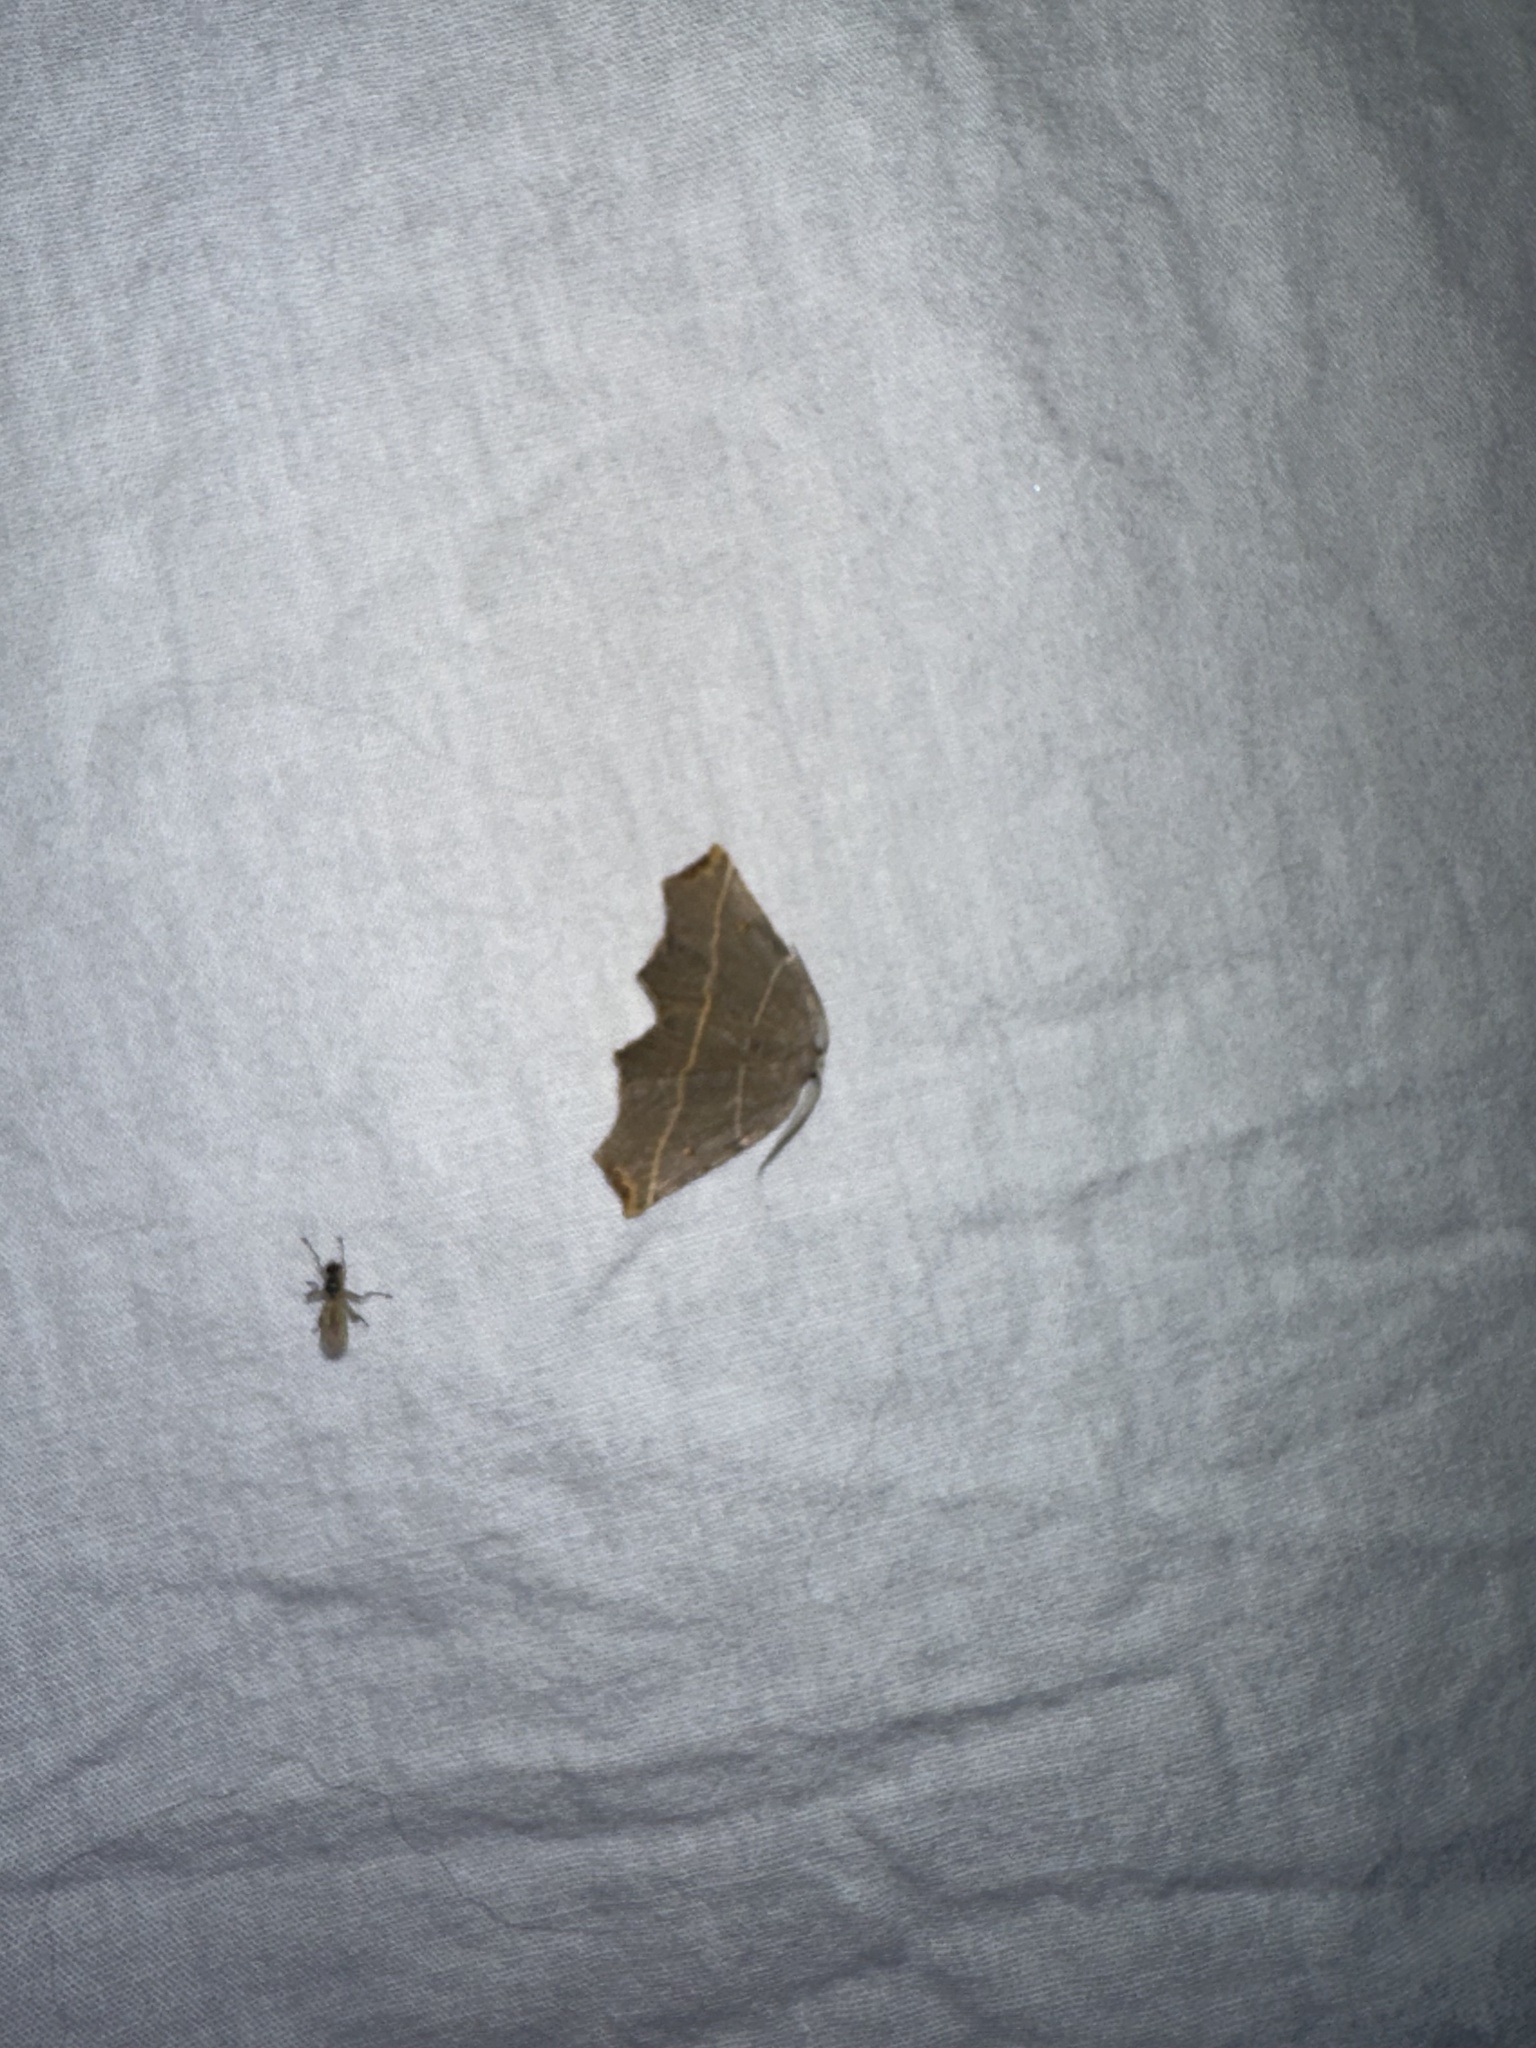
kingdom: Animalia
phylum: Arthropoda
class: Insecta
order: Lepidoptera
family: Geometridae
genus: Metanema
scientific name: Metanema inatomaria
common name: Pale metanema
